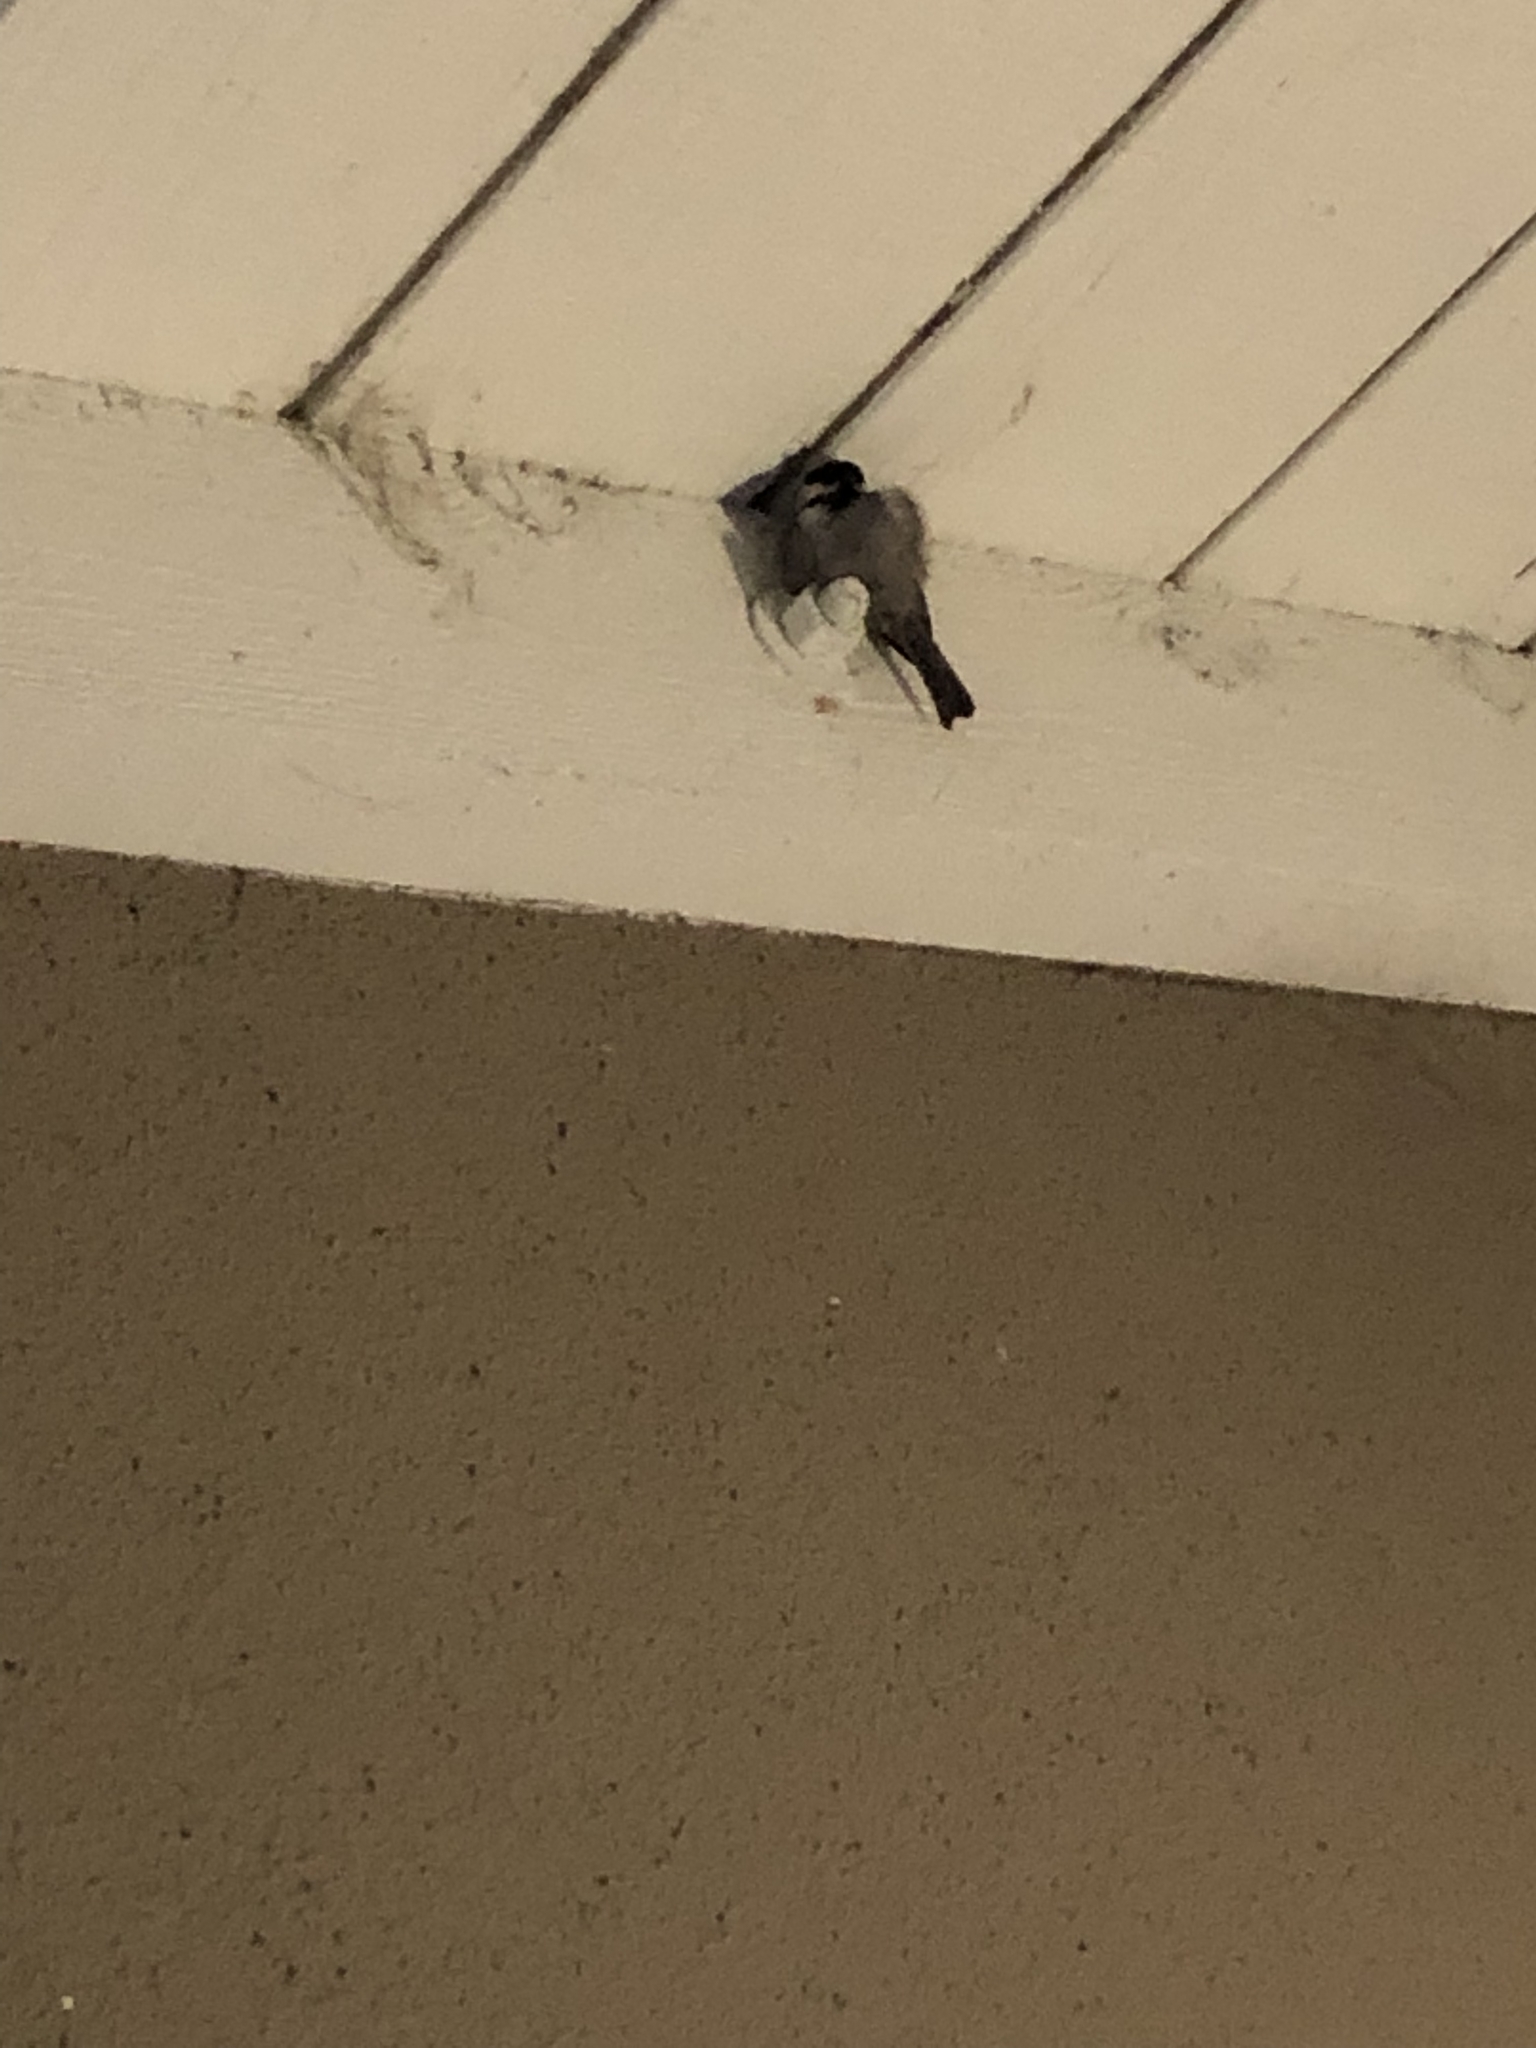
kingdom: Animalia
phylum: Chordata
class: Aves
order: Passeriformes
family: Paridae
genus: Poecile
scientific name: Poecile rufescens
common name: Chestnut-backed chickadee
